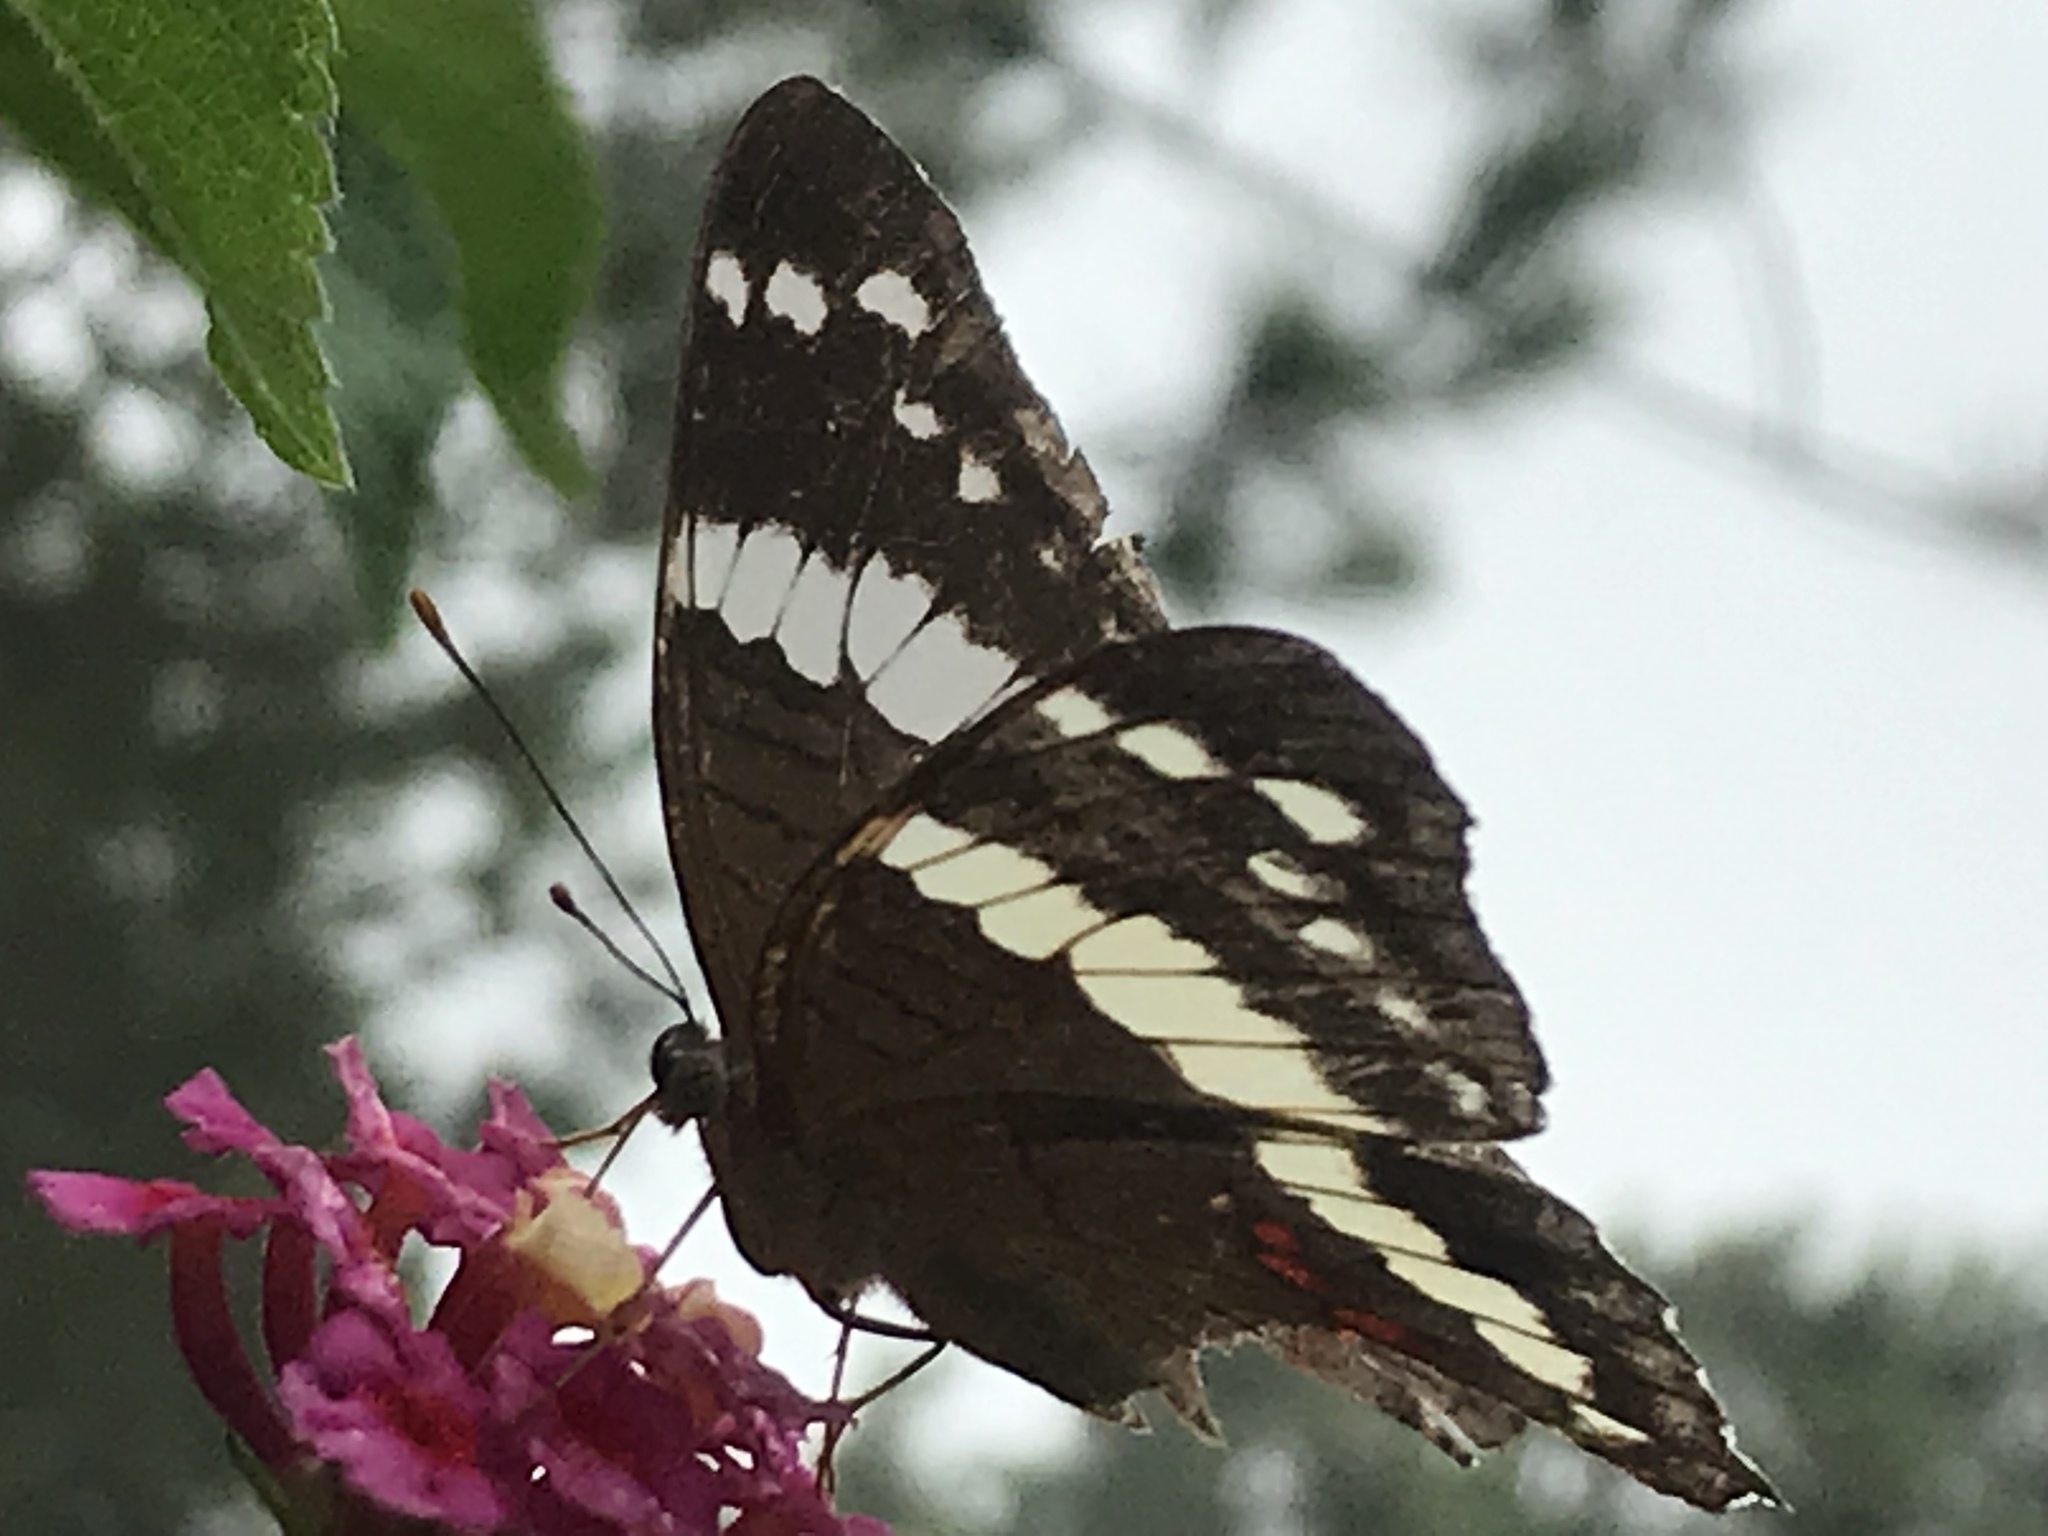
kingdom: Animalia
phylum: Arthropoda
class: Insecta
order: Lepidoptera
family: Nymphalidae
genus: Anartia
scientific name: Anartia fatima
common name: Banded peacock
